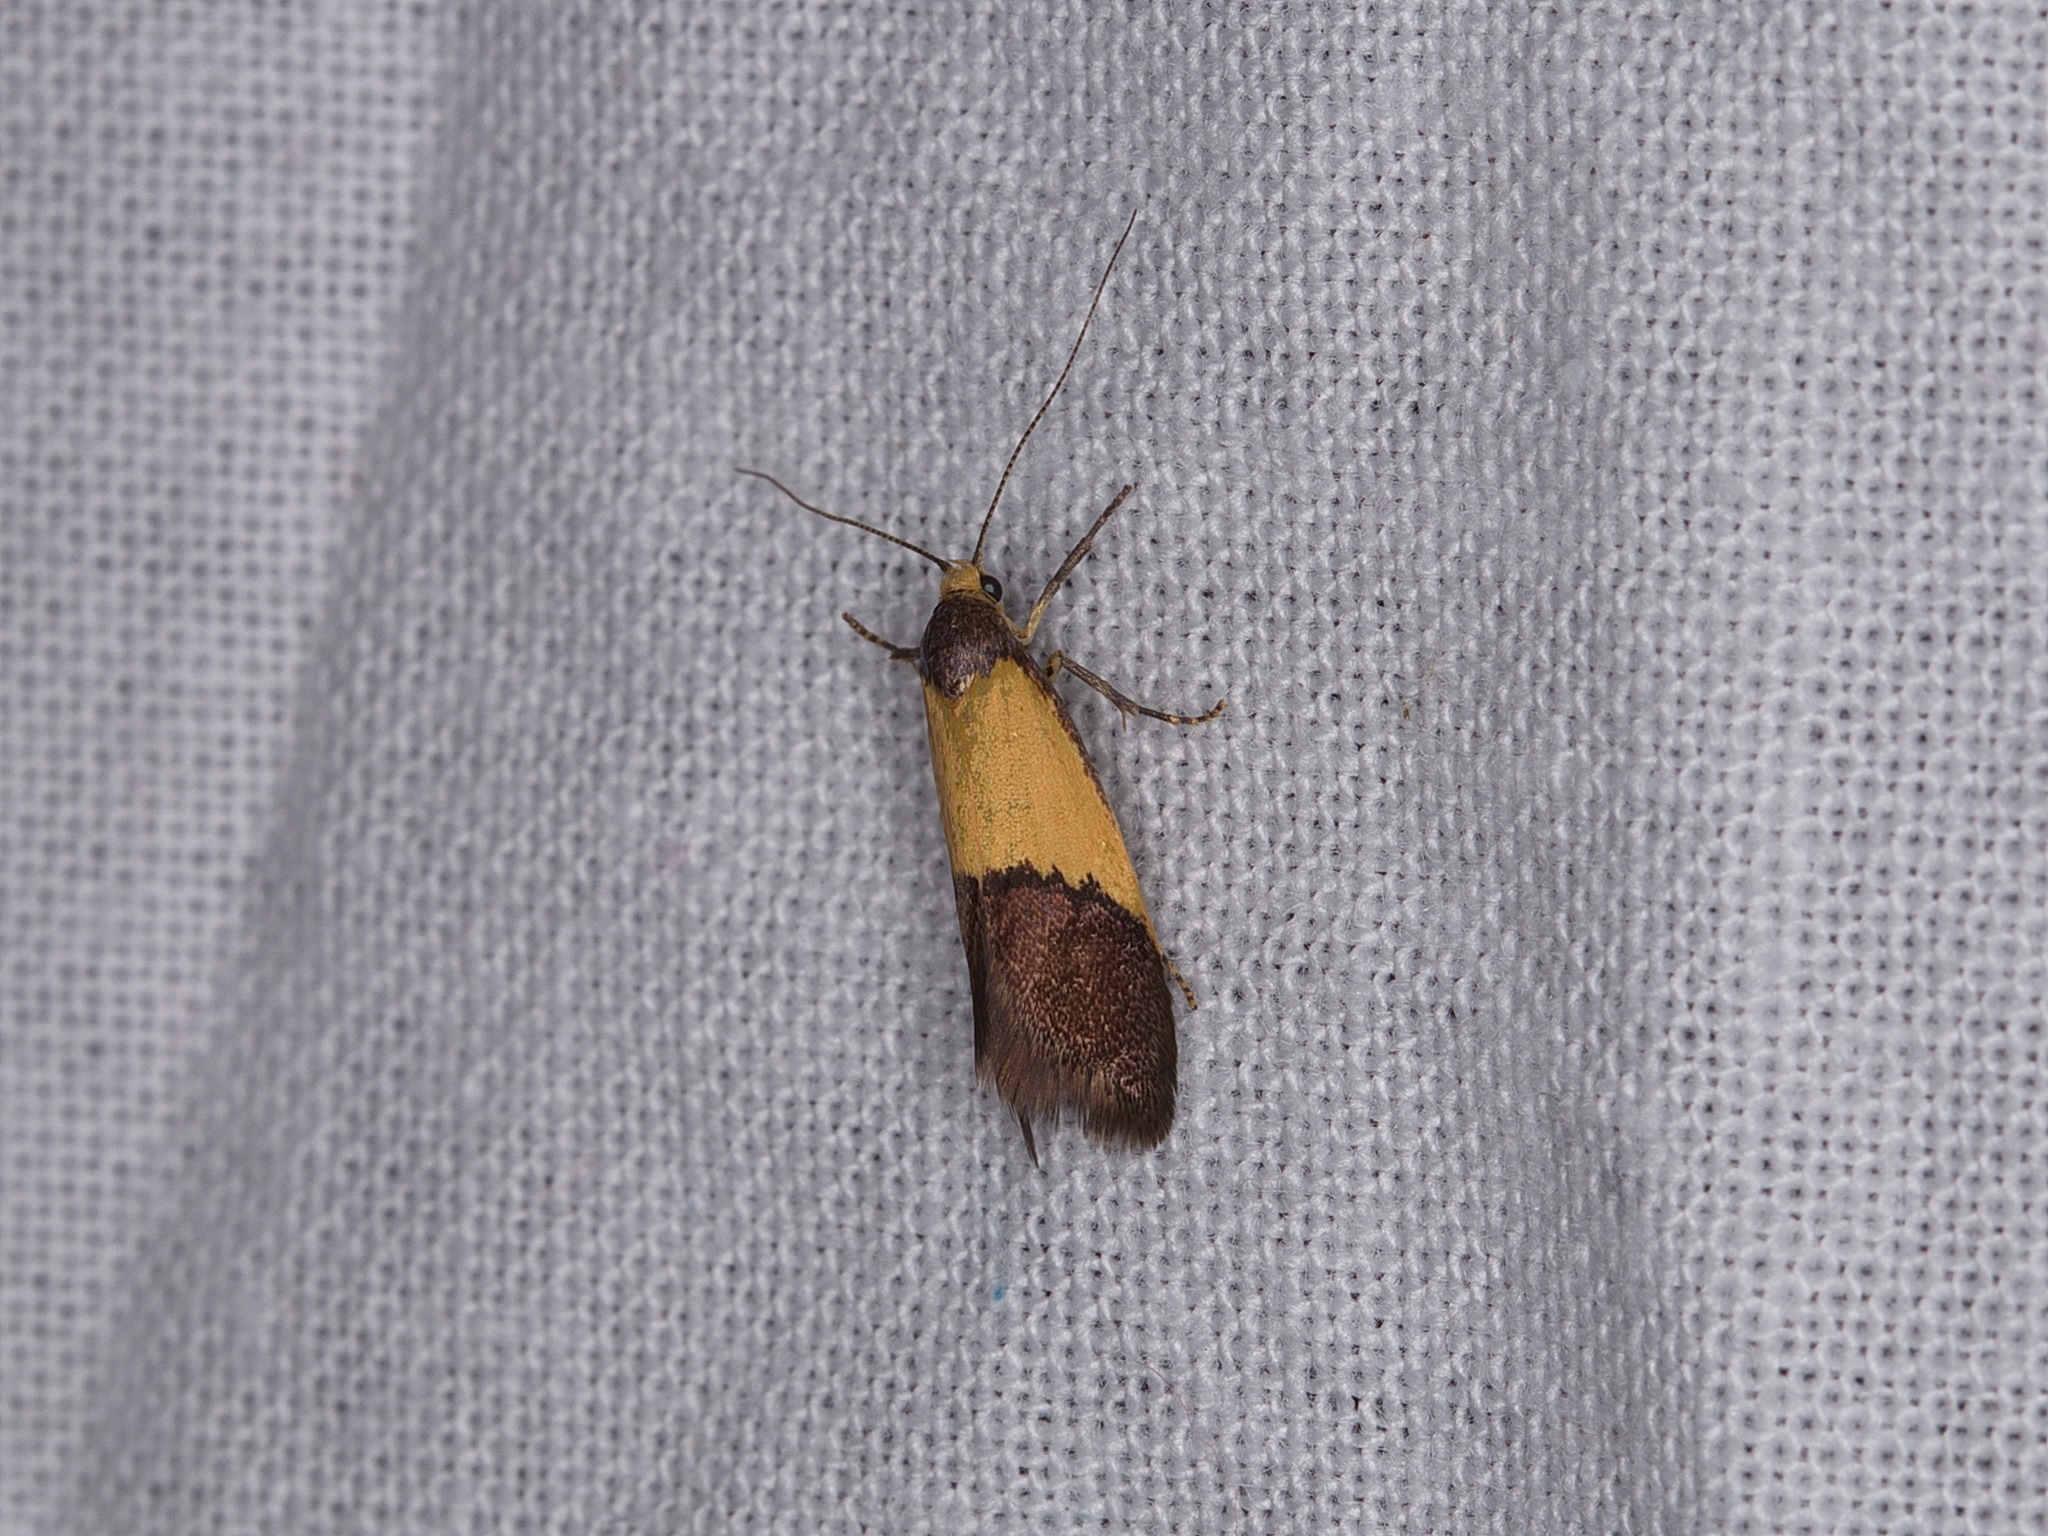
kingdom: Animalia
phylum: Arthropoda
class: Insecta
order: Lepidoptera
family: Oecophoridae
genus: Hemibela
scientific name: Hemibela hemicalypta
